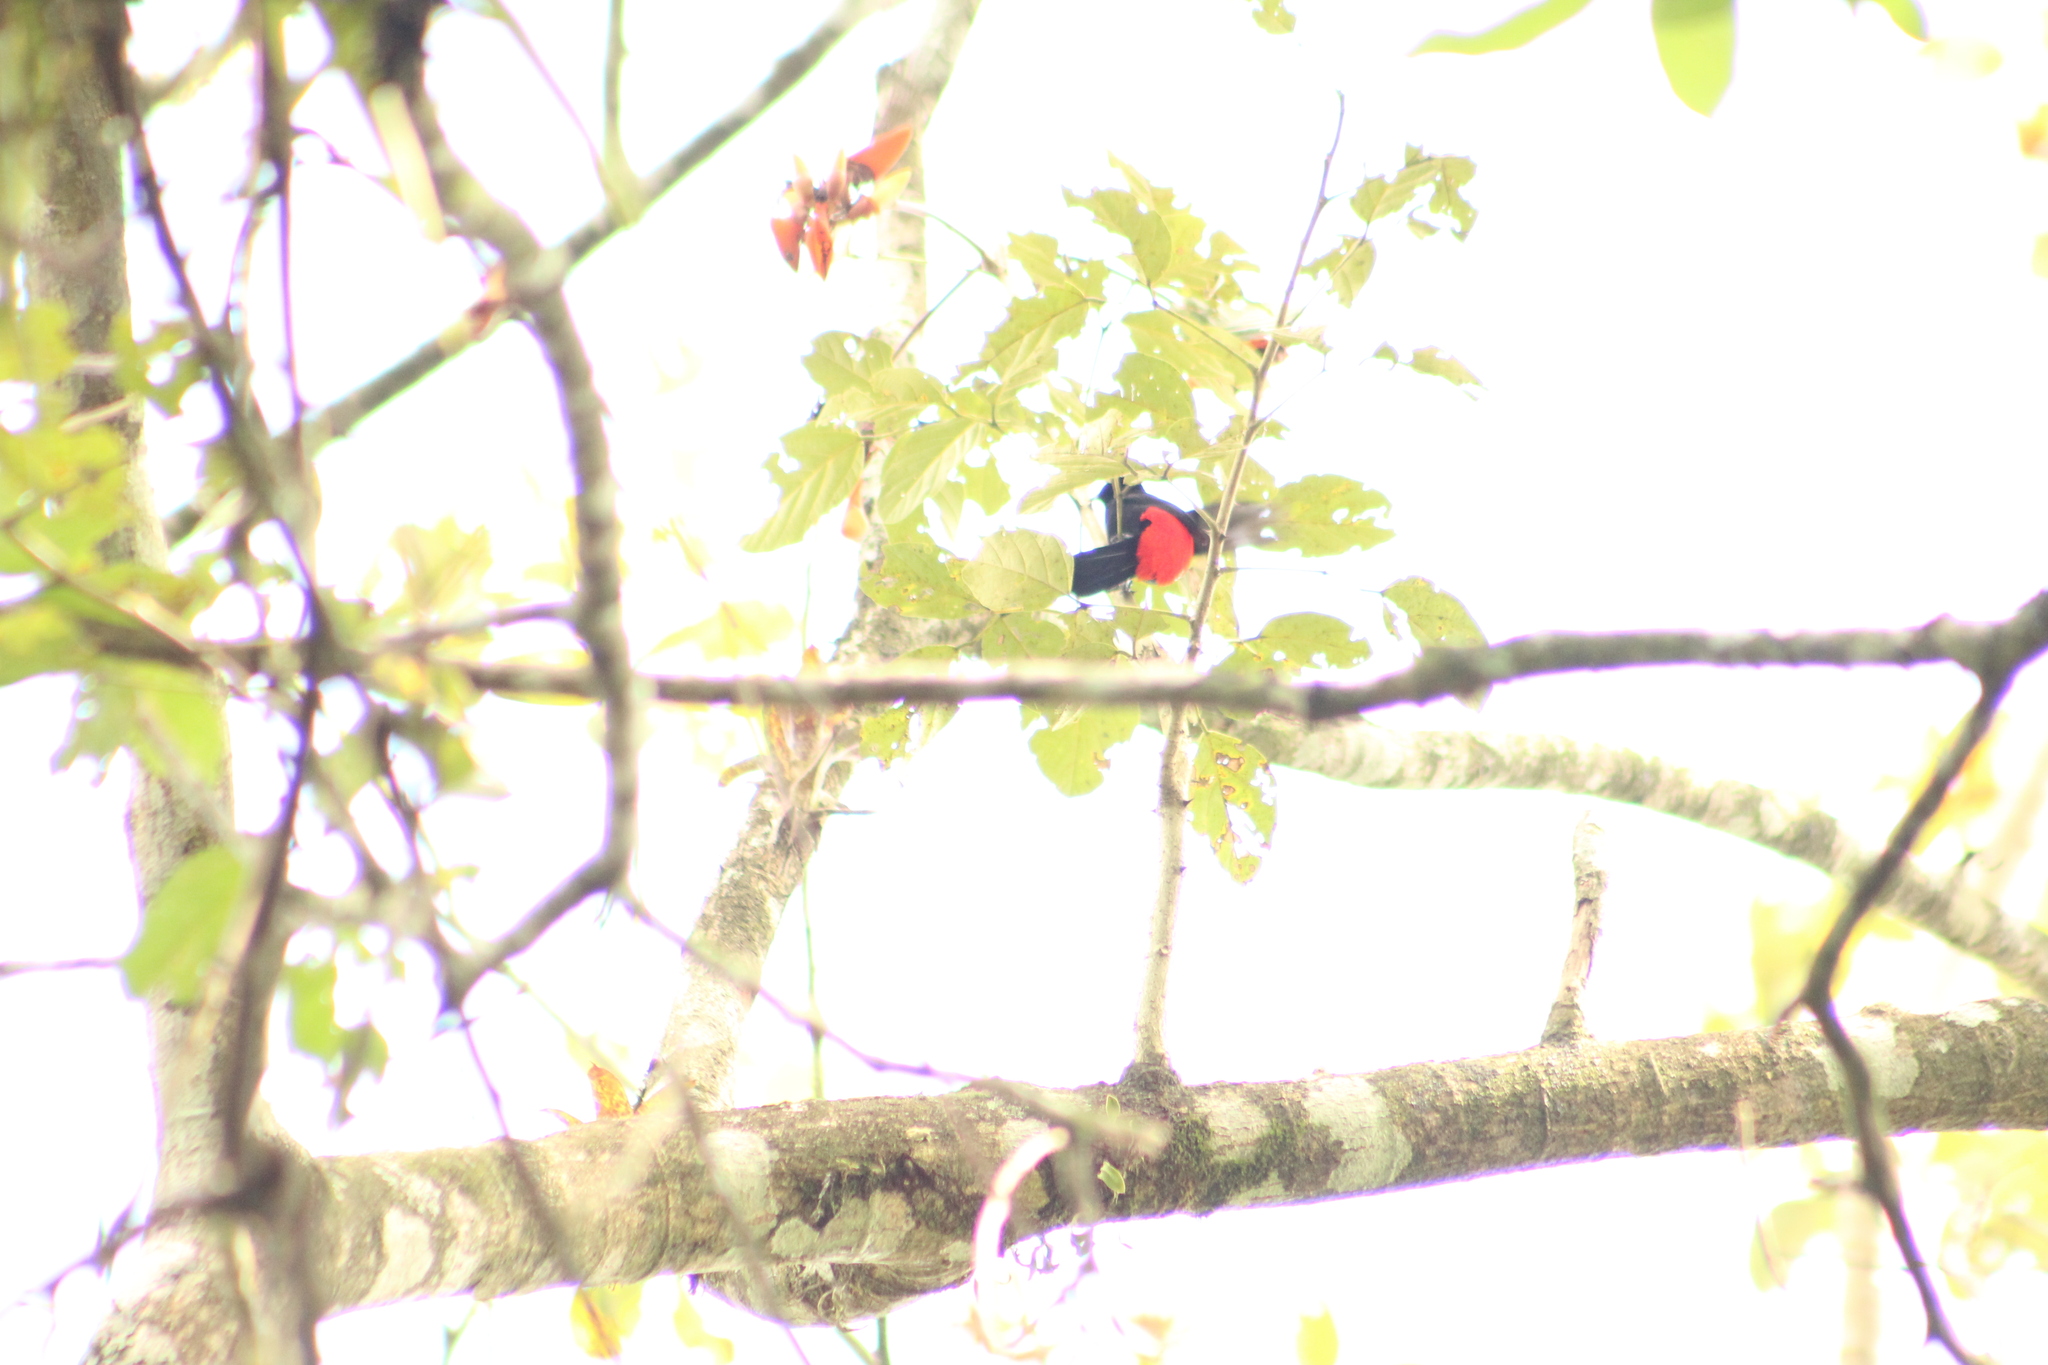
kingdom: Animalia
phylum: Chordata
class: Aves
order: Passeriformes
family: Thraupidae
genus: Ramphocelus
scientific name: Ramphocelus passerinii
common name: Passerini's tanager
